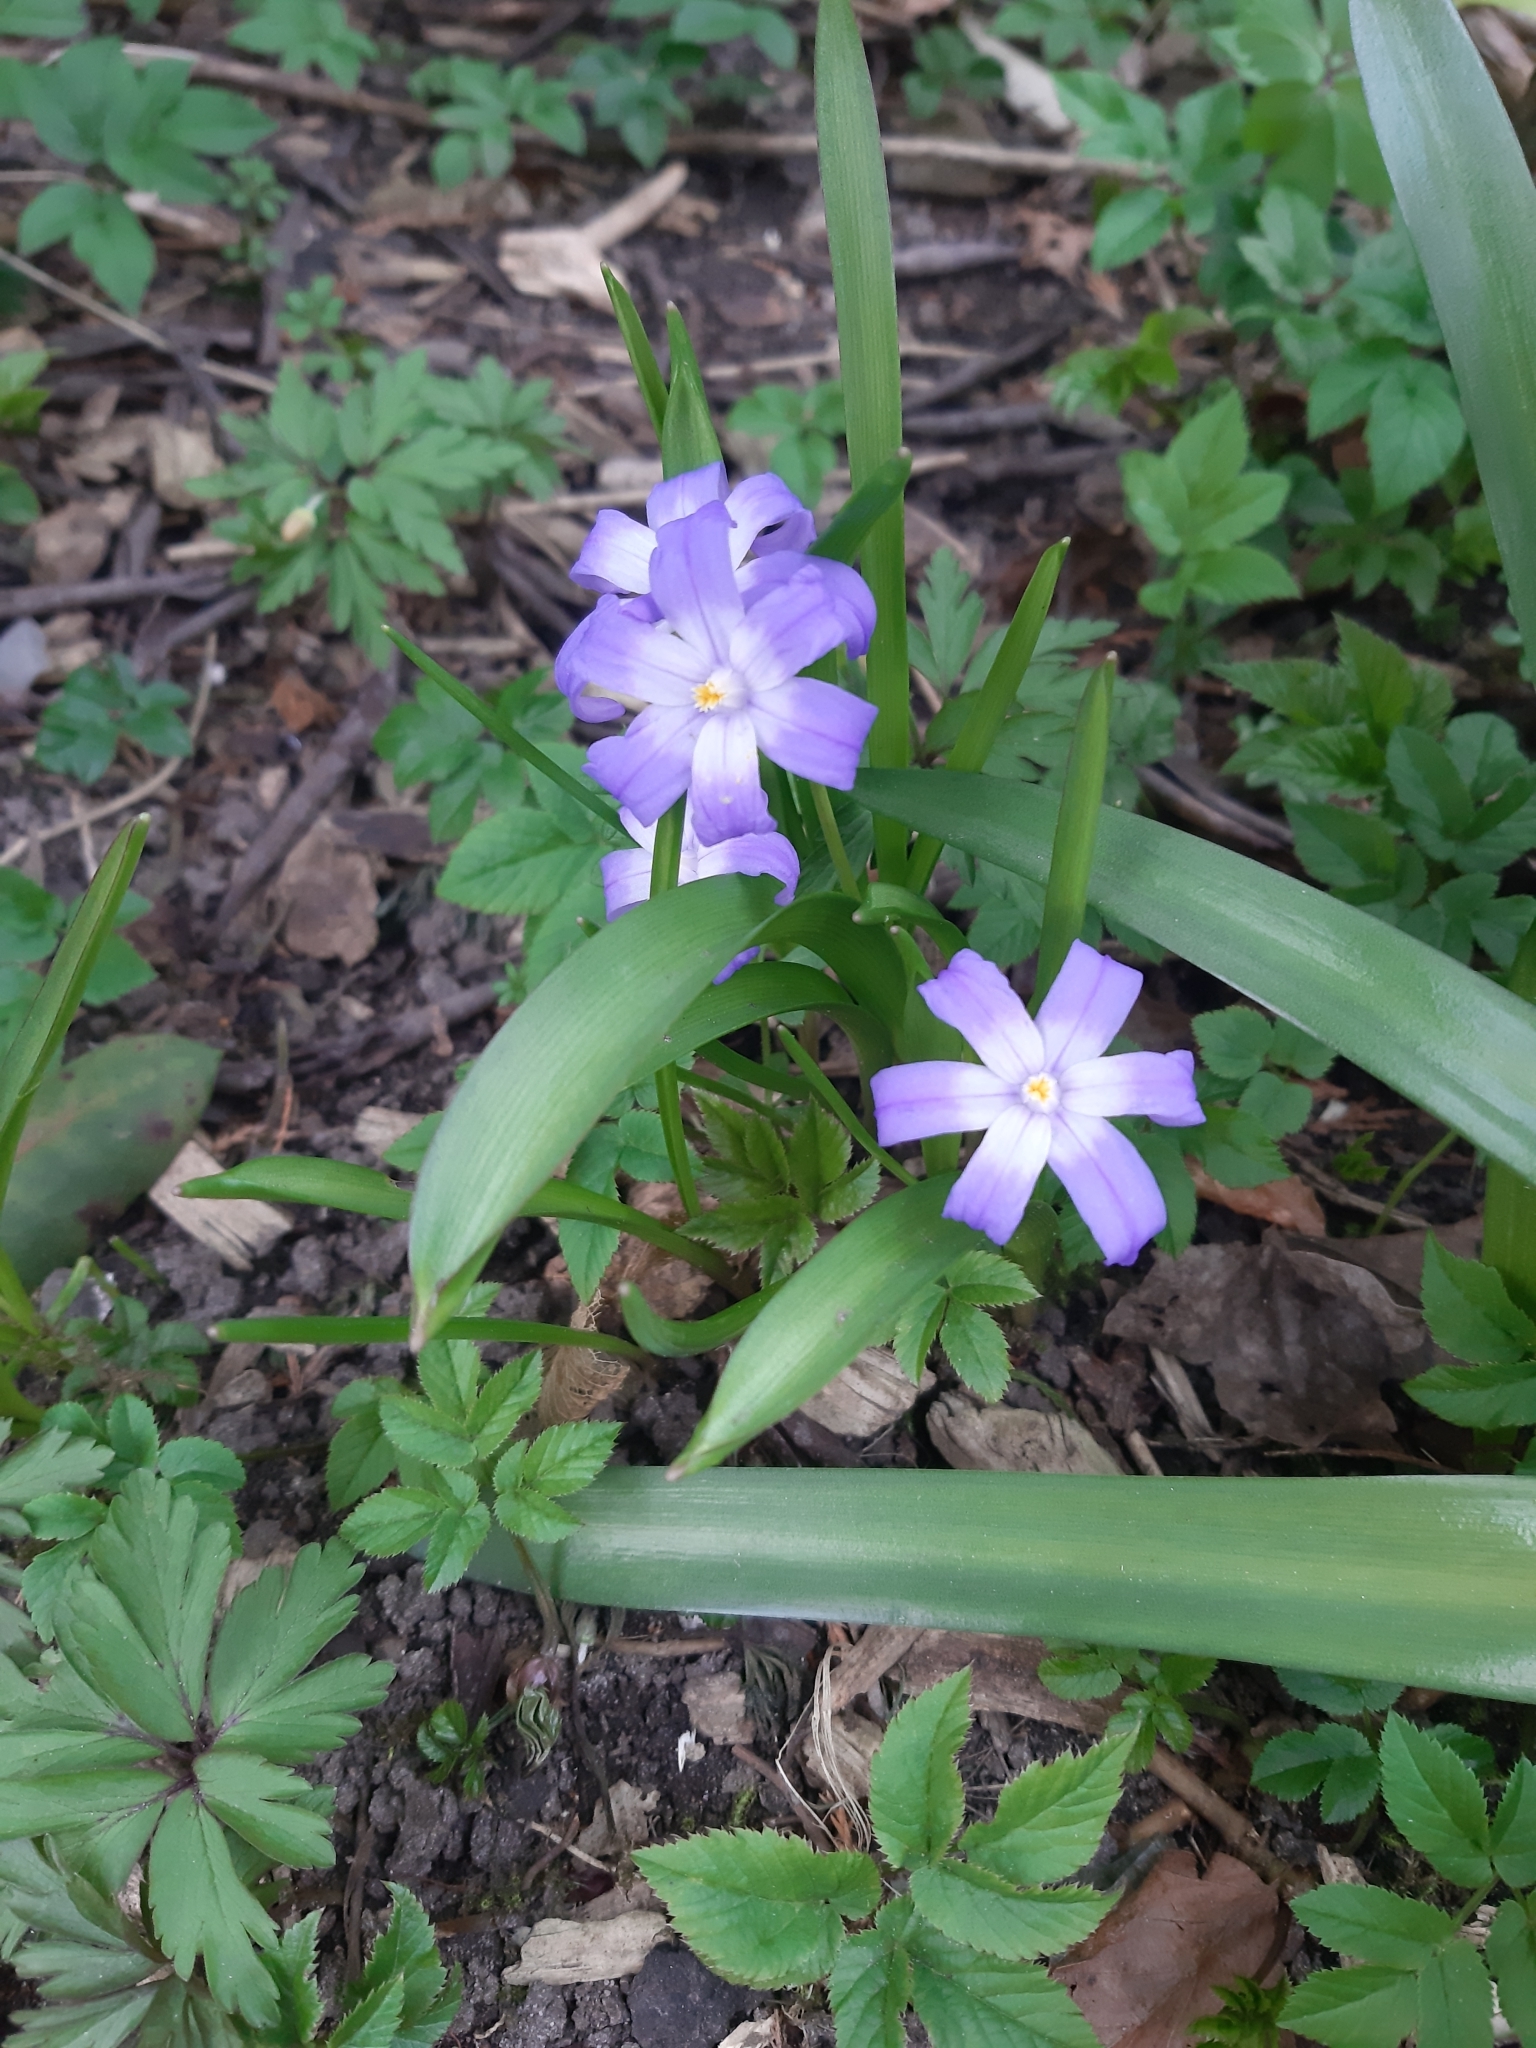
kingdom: Plantae
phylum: Tracheophyta
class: Liliopsida
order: Asparagales
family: Asparagaceae
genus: Scilla
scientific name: Scilla luciliae
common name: Boissier's glory-of-the-snow
